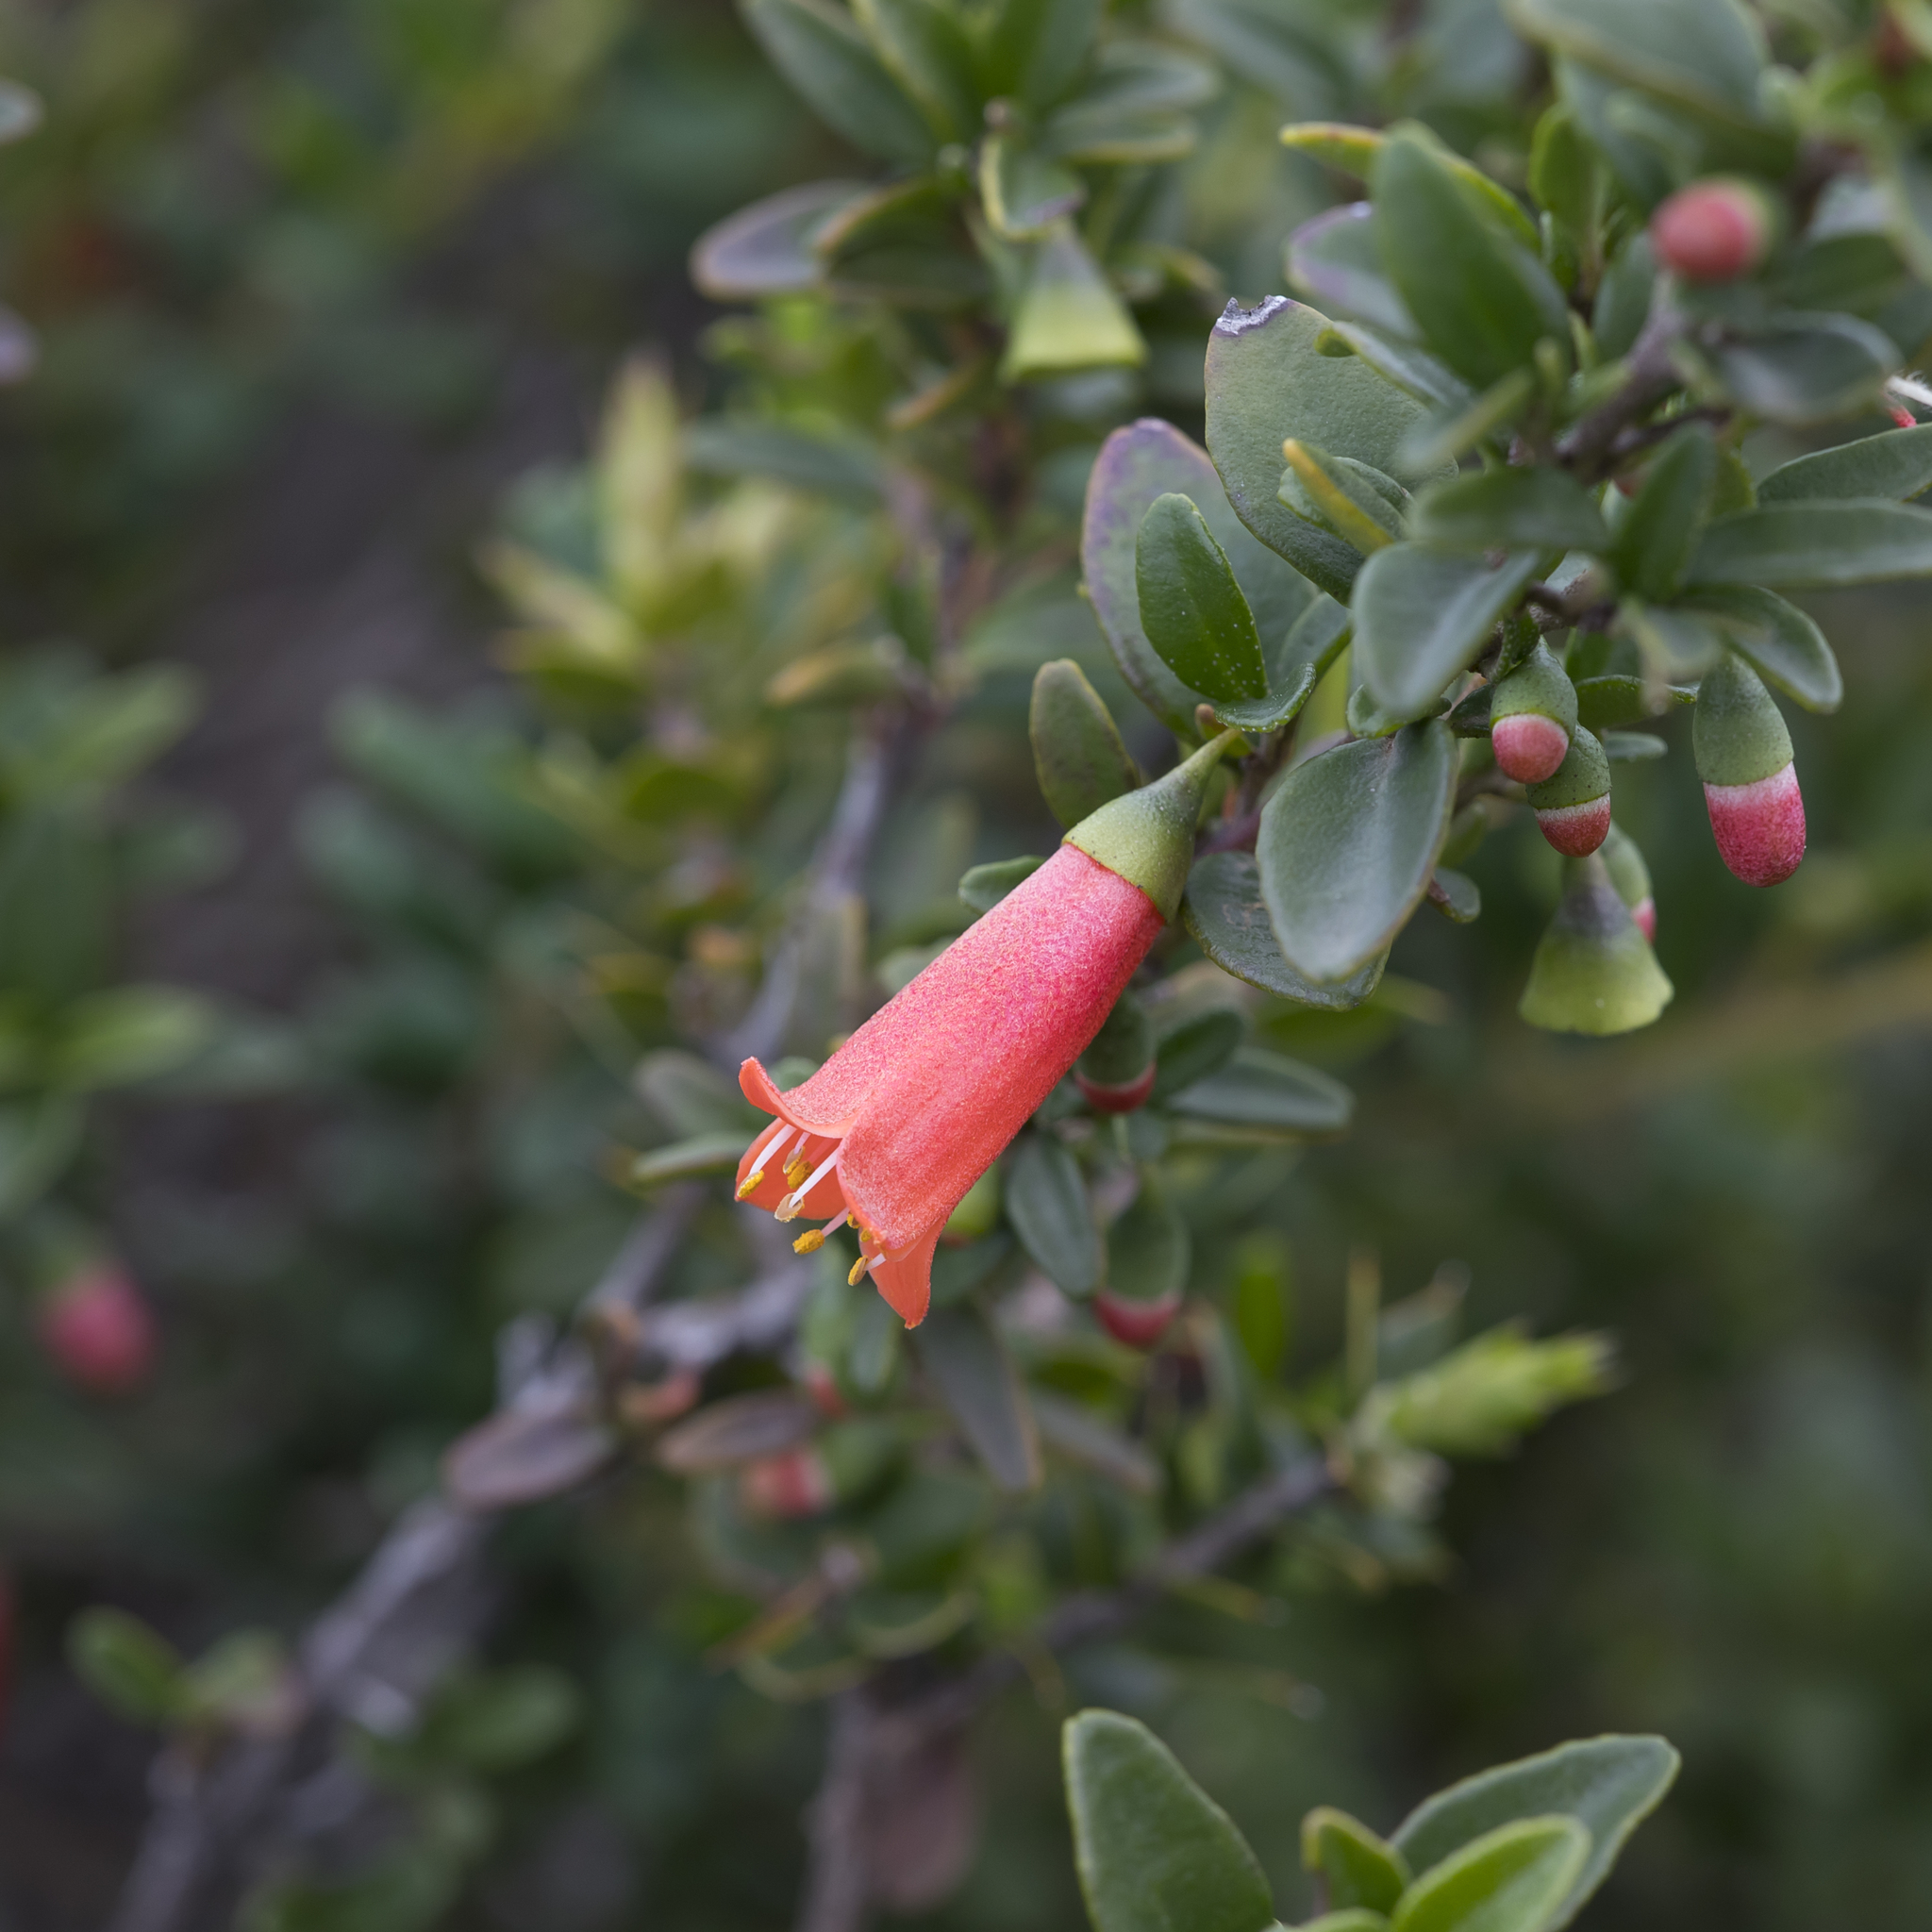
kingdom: Plantae
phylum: Tracheophyta
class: Magnoliopsida
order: Sapindales
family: Rutaceae
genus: Correa
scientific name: Correa pulchella
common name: Salmon correa
